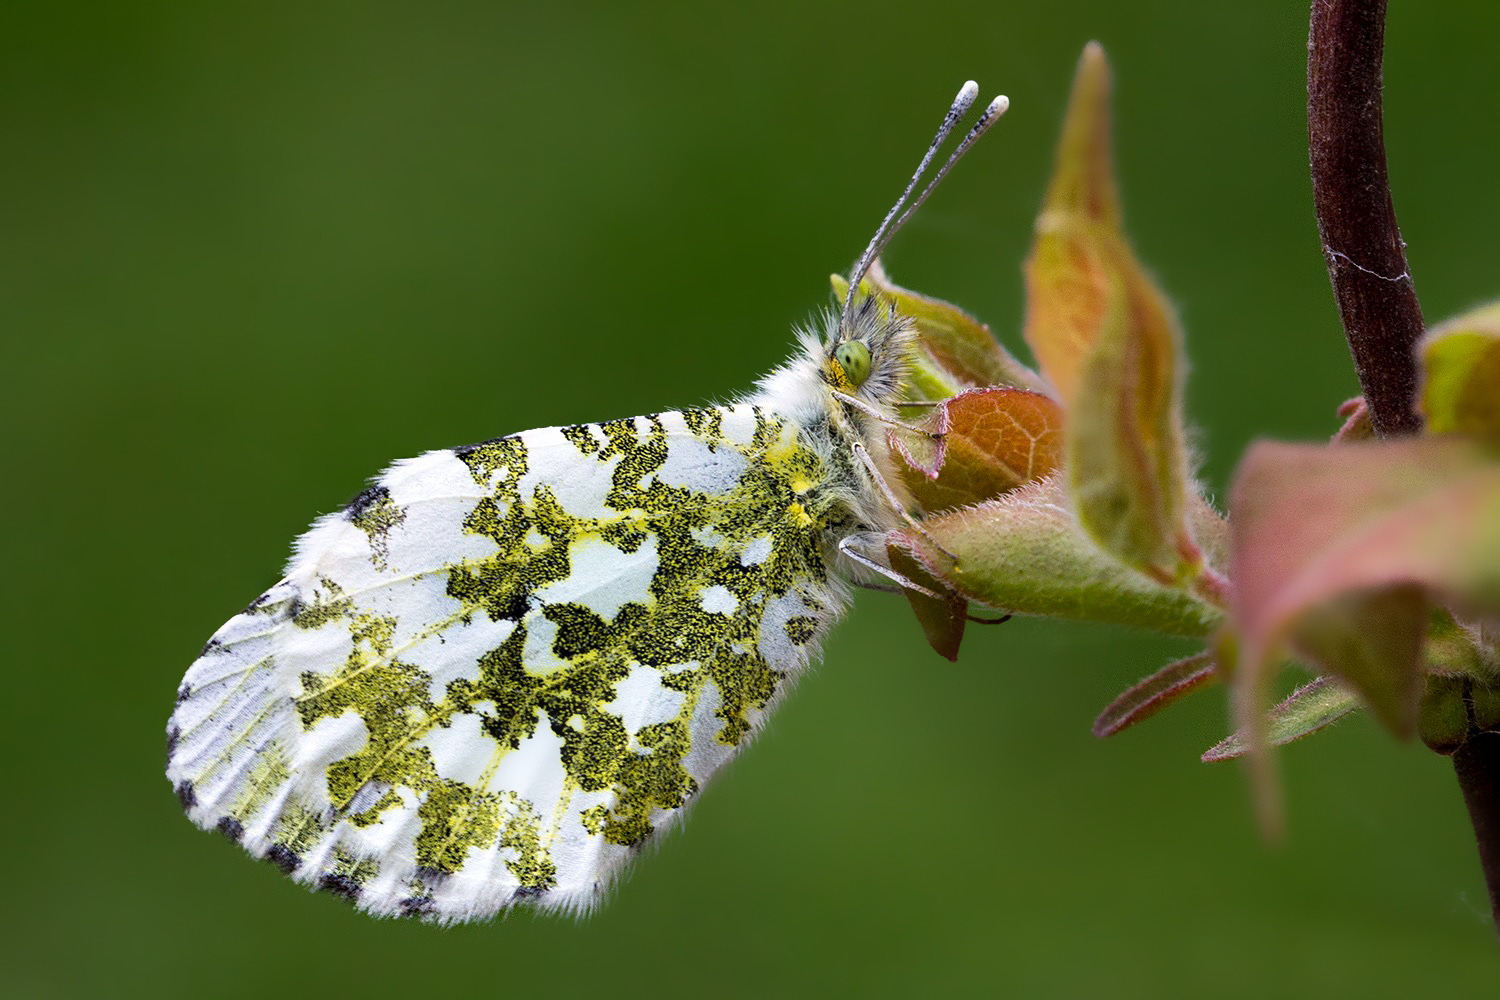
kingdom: Animalia
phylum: Arthropoda
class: Insecta
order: Lepidoptera
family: Pieridae
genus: Anthocharis
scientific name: Anthocharis cardamines
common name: Orange-tip
